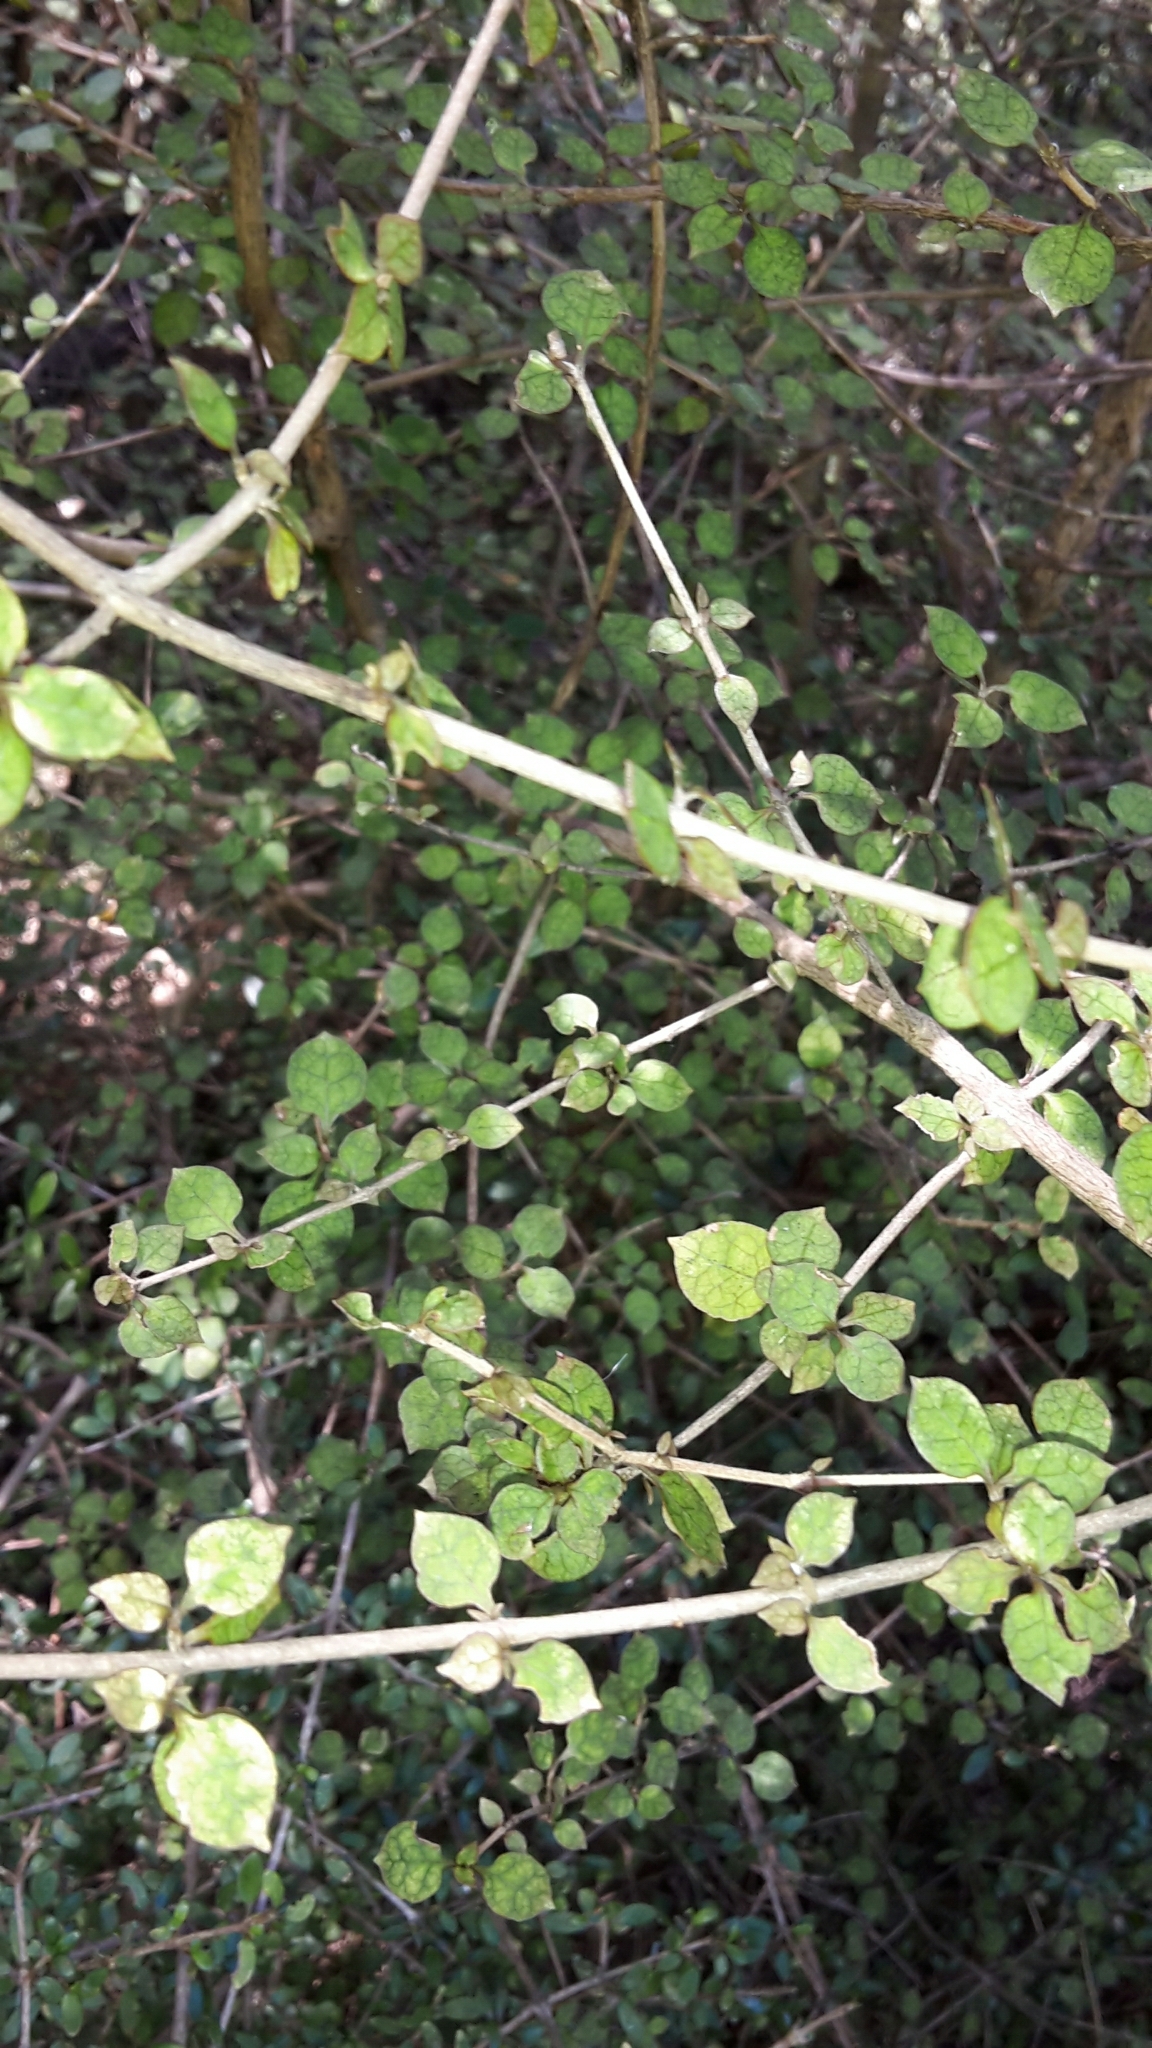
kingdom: Plantae
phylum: Tracheophyta
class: Magnoliopsida
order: Gentianales
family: Rubiaceae
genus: Coprosma
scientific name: Coprosma areolata
